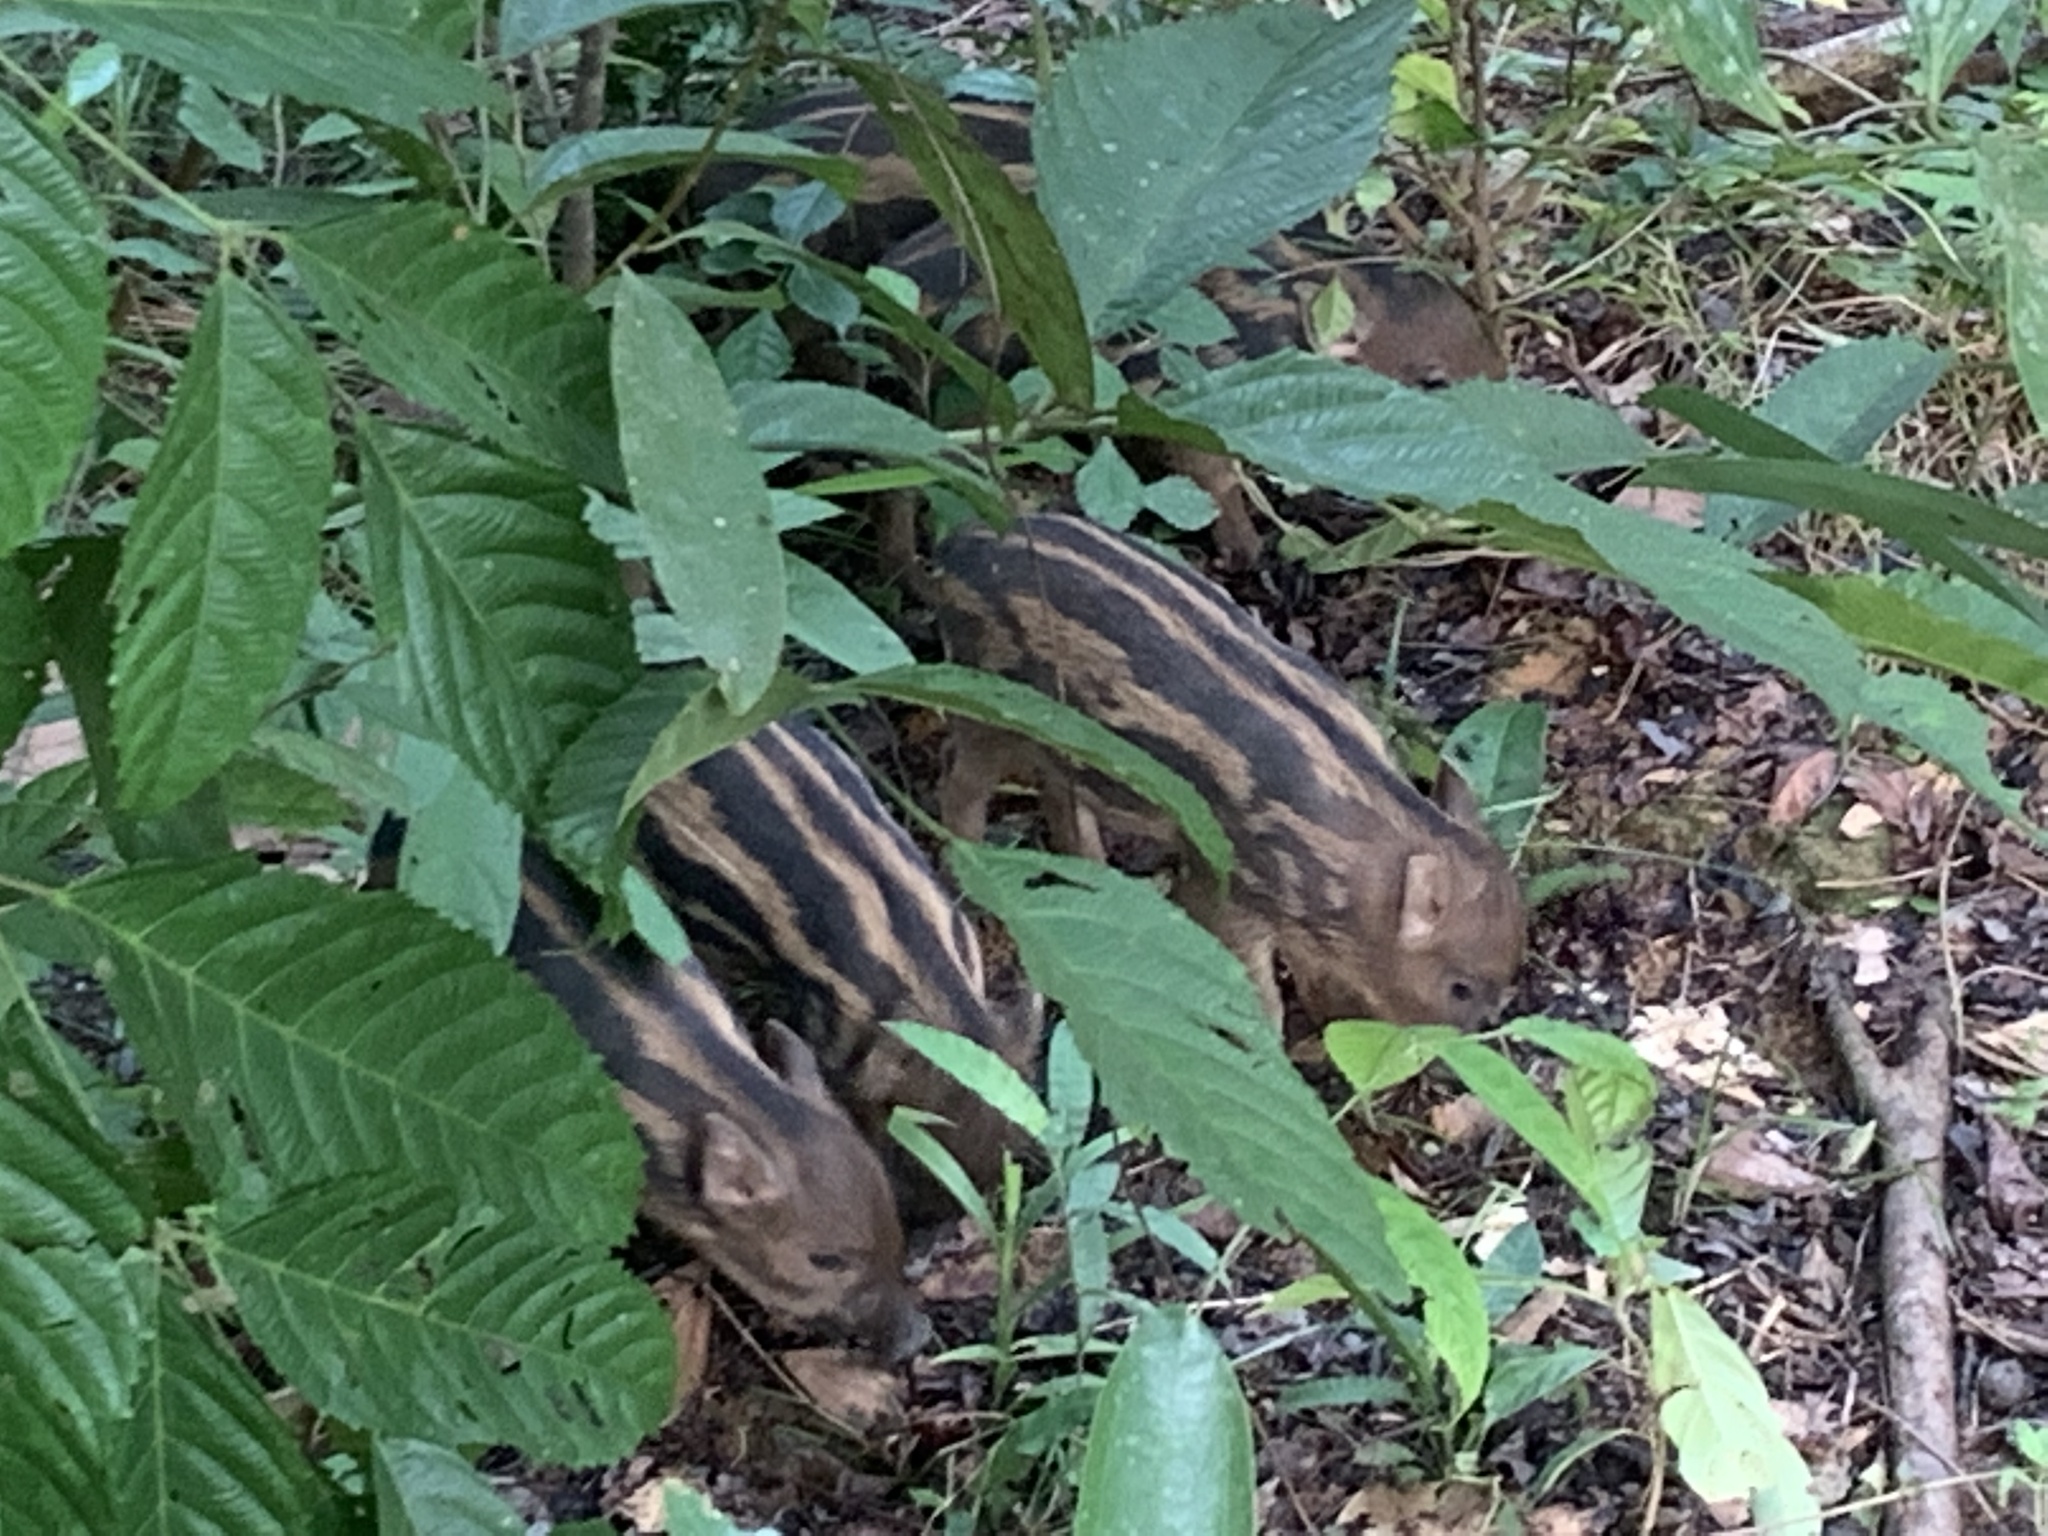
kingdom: Animalia
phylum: Chordata
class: Mammalia
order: Artiodactyla
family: Suidae
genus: Sus
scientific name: Sus scrofa
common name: Wild boar
